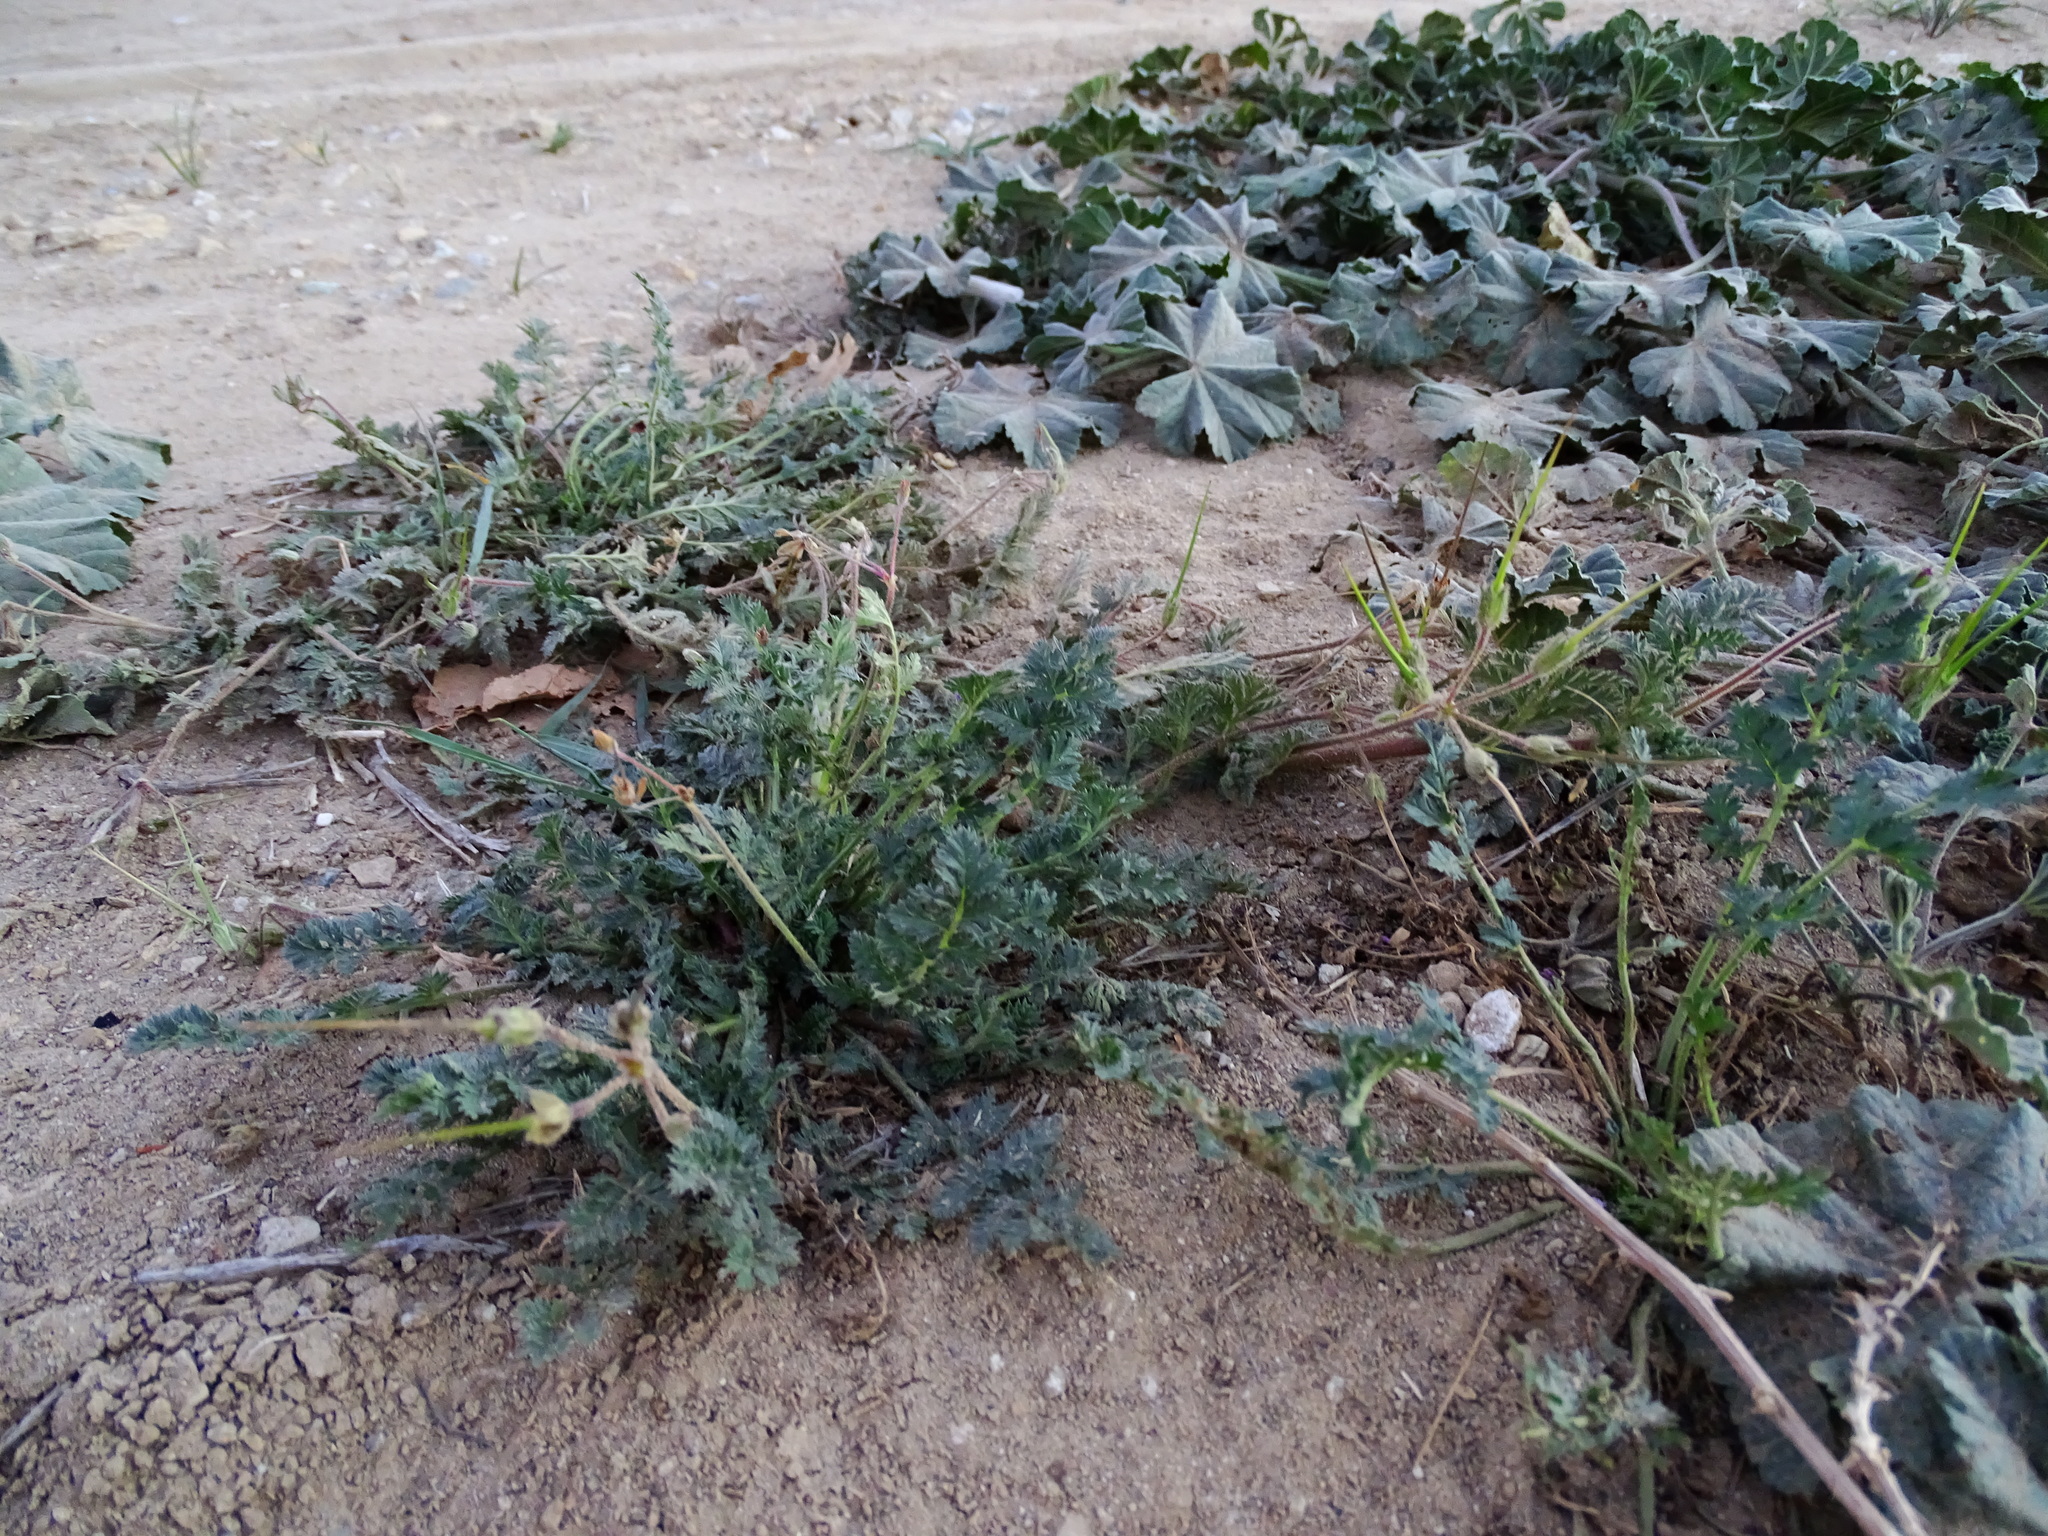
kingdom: Plantae
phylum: Tracheophyta
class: Magnoliopsida
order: Geraniales
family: Geraniaceae
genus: Erodium
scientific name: Erodium cicutarium
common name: Common stork's-bill
